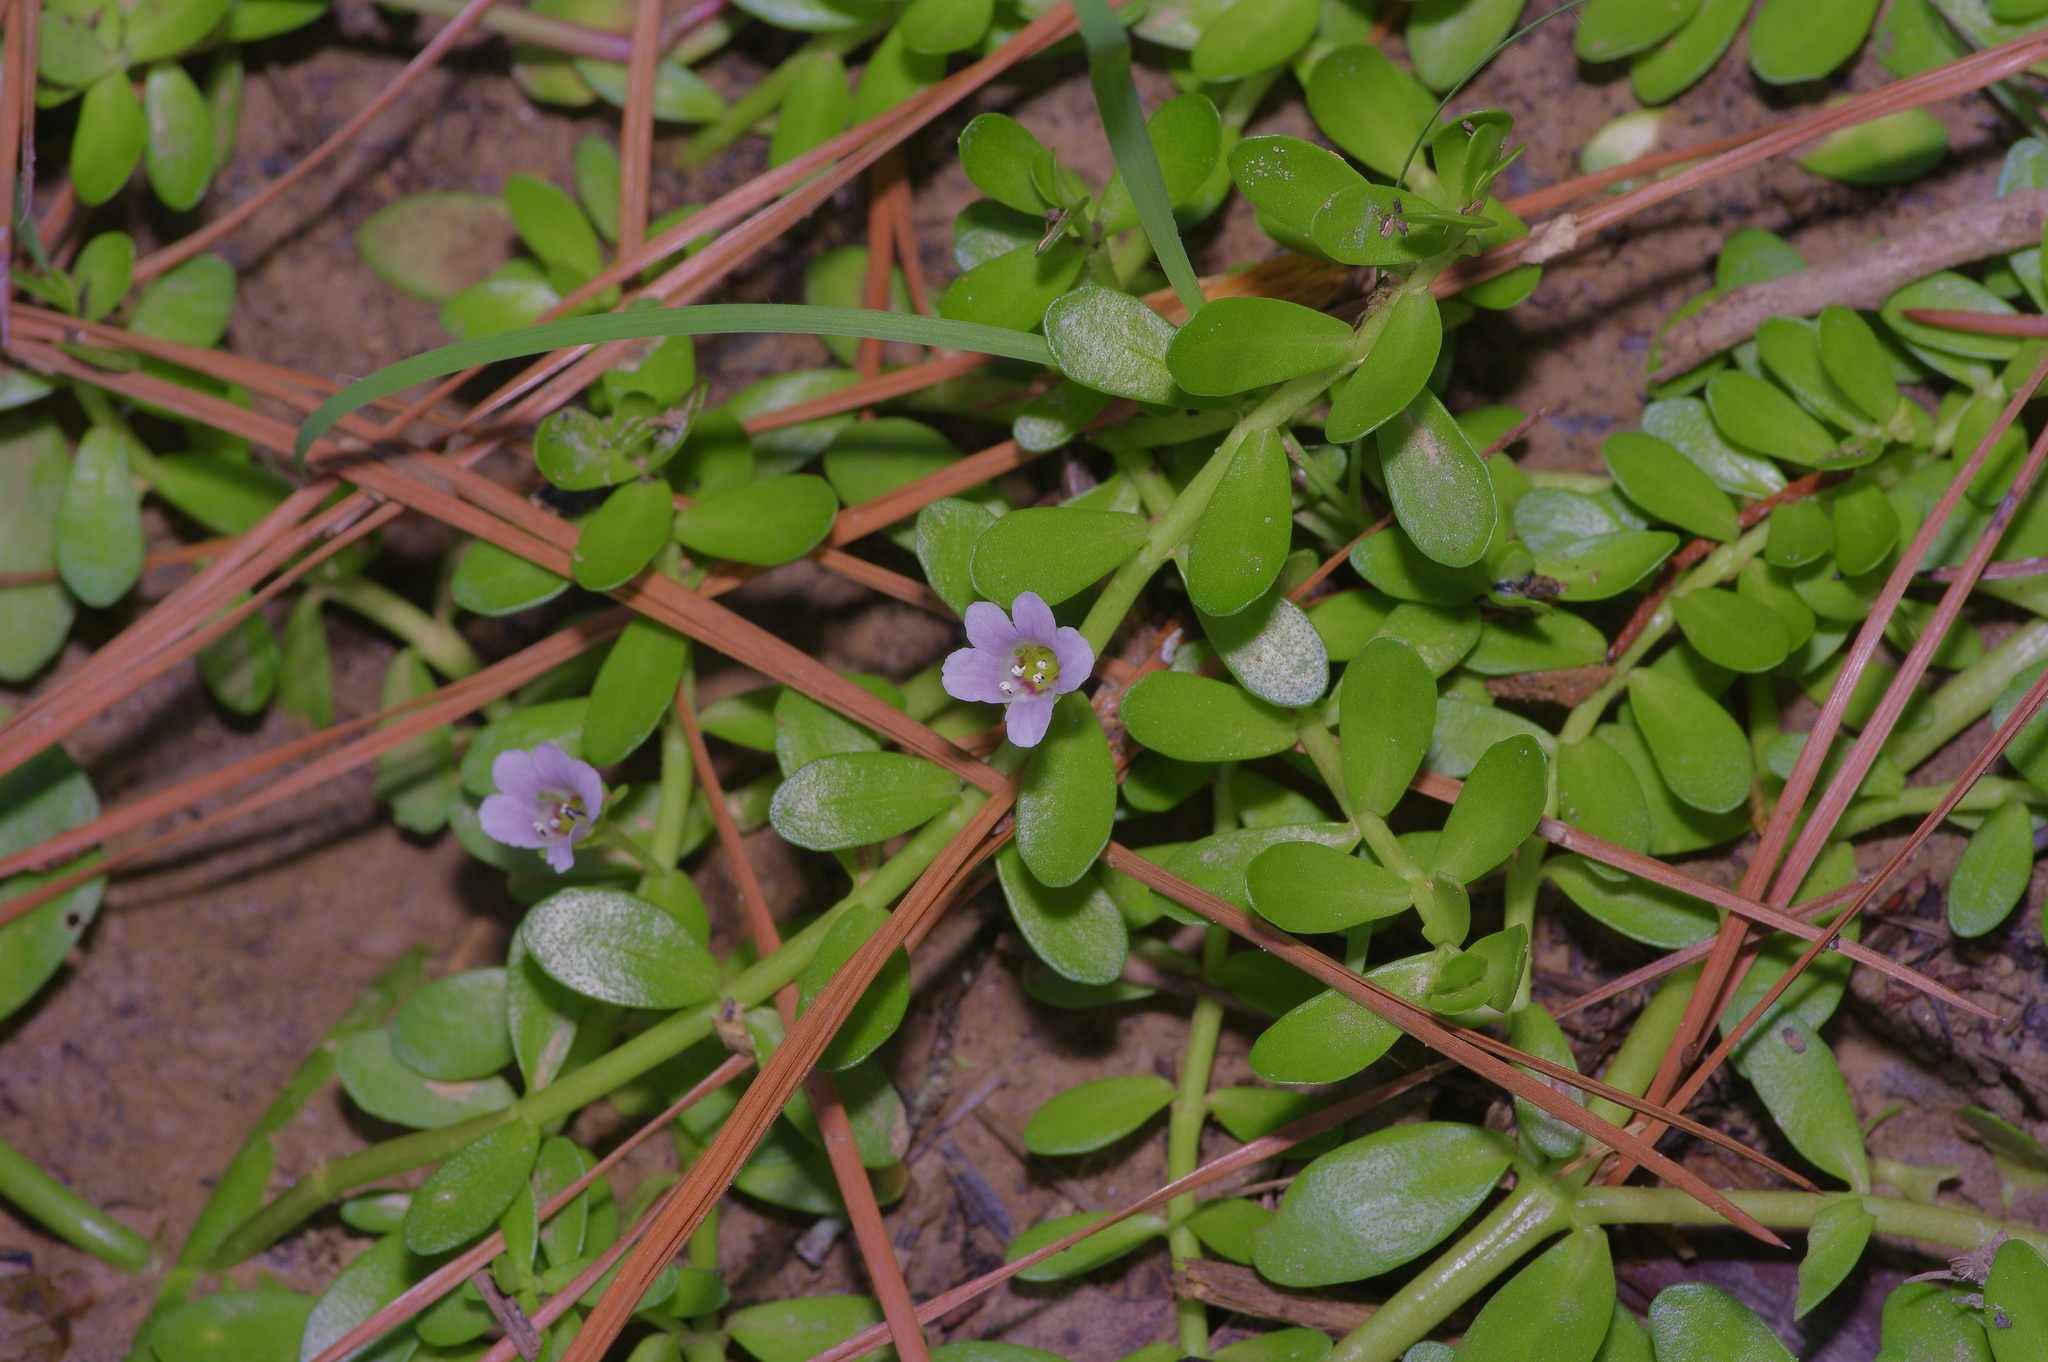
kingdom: Plantae
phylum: Tracheophyta
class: Magnoliopsida
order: Lamiales
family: Plantaginaceae
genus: Bacopa
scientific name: Bacopa monnieri
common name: Indian-pennywort
